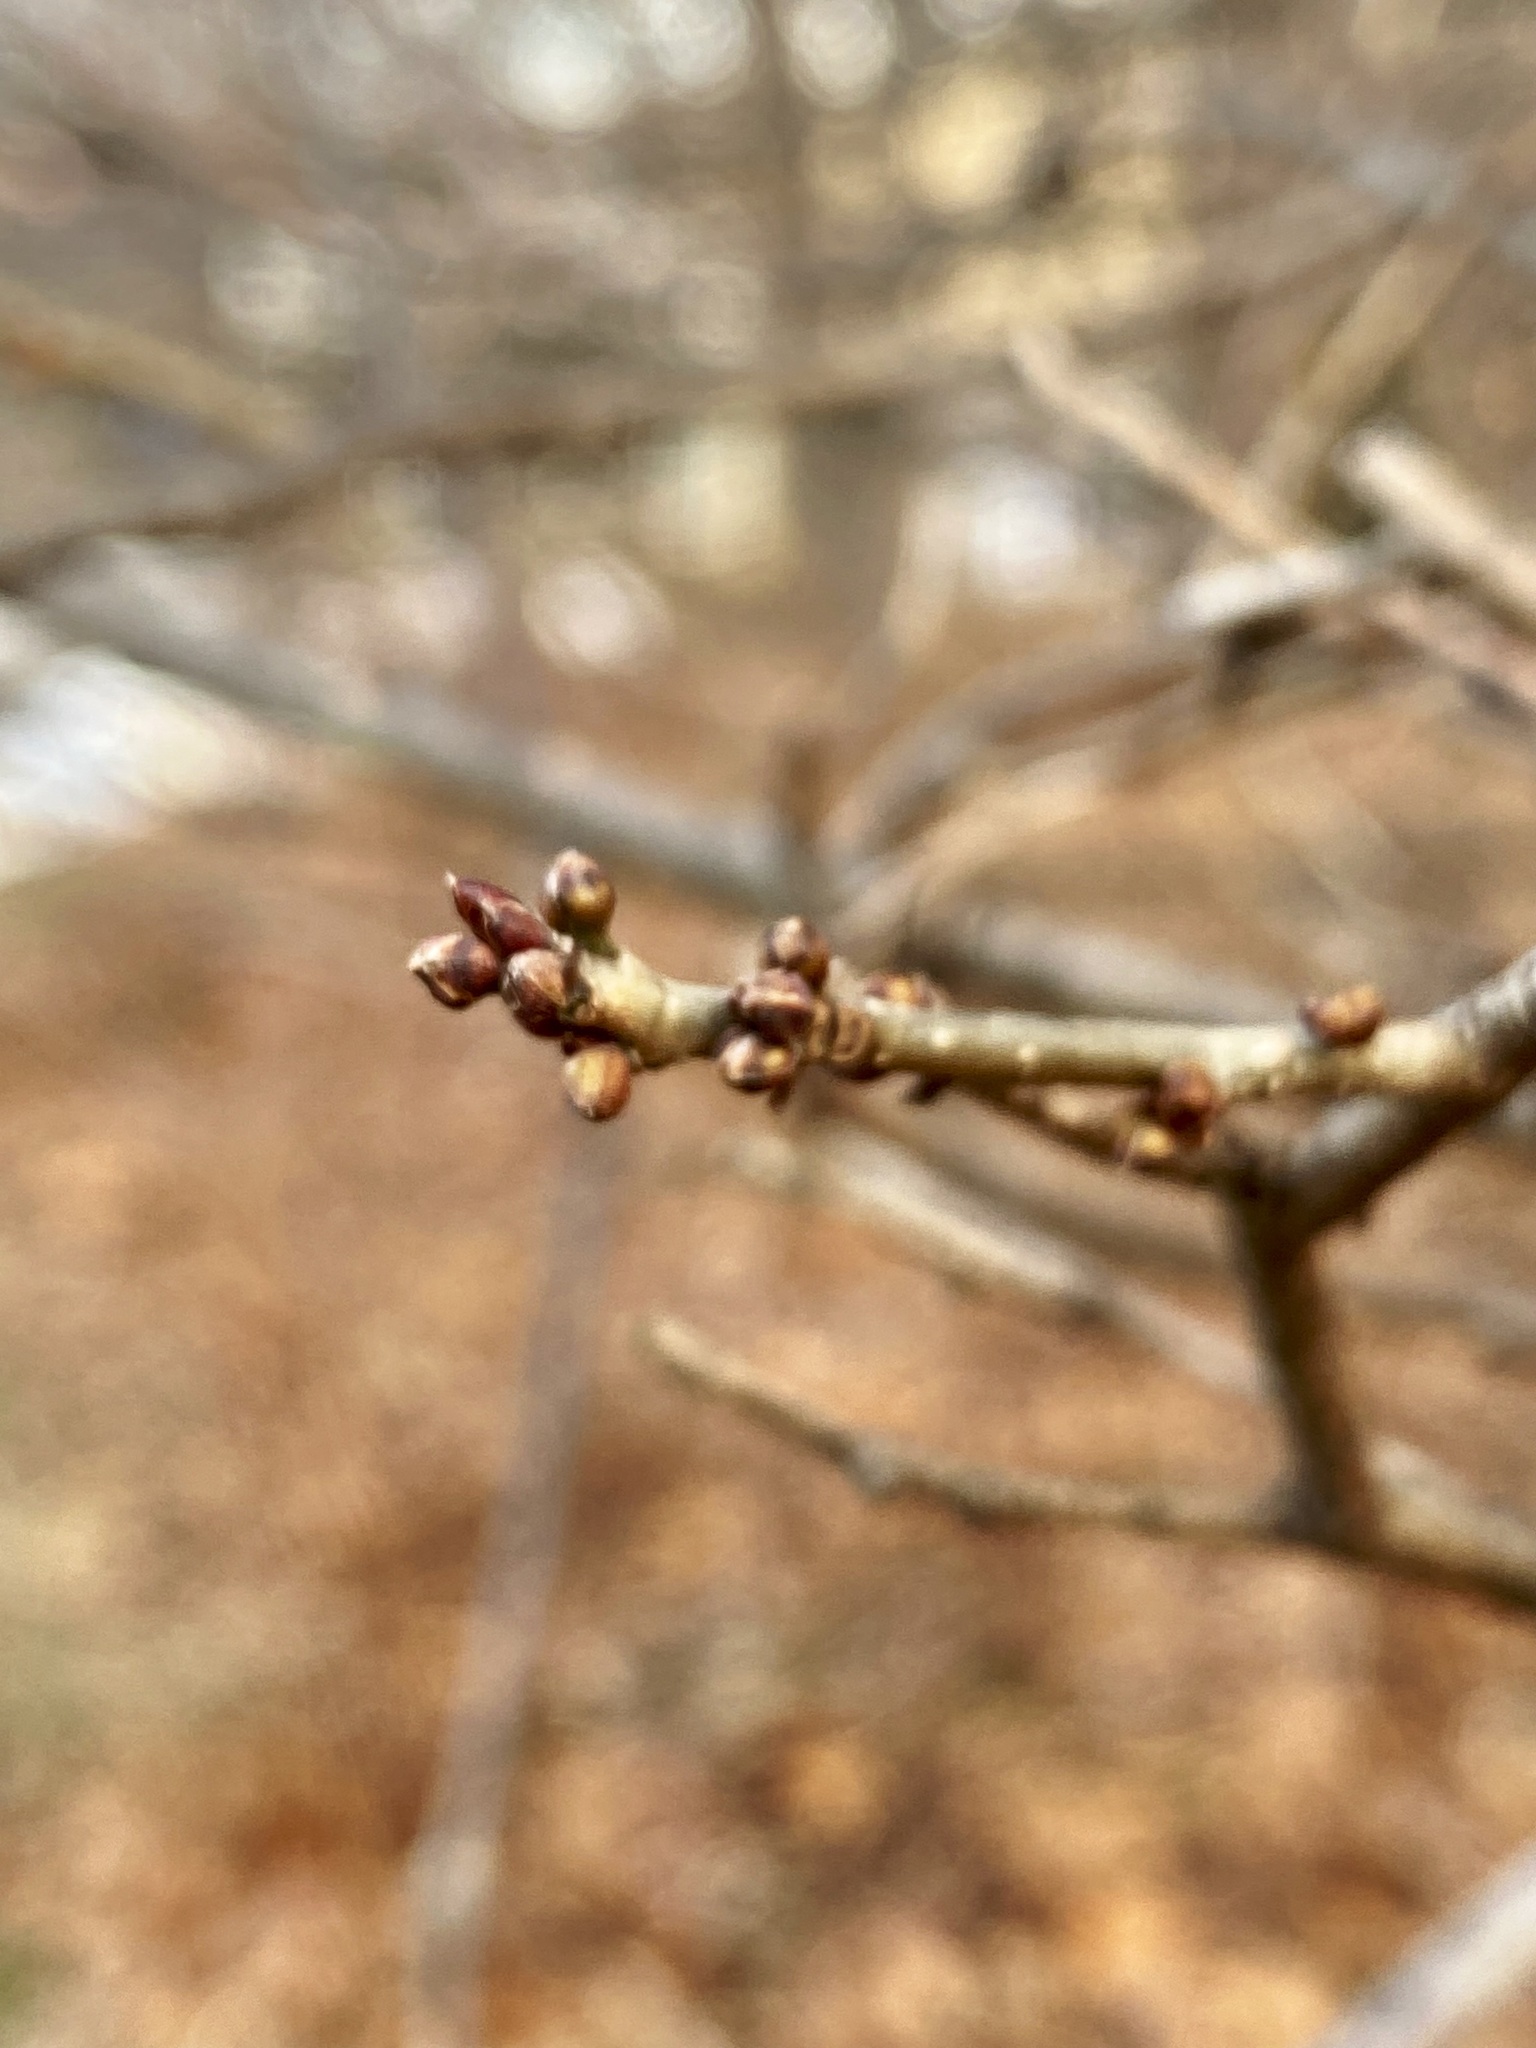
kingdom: Plantae
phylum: Tracheophyta
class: Magnoliopsida
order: Laurales
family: Lauraceae
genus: Lindera
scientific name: Lindera benzoin
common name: Spicebush
